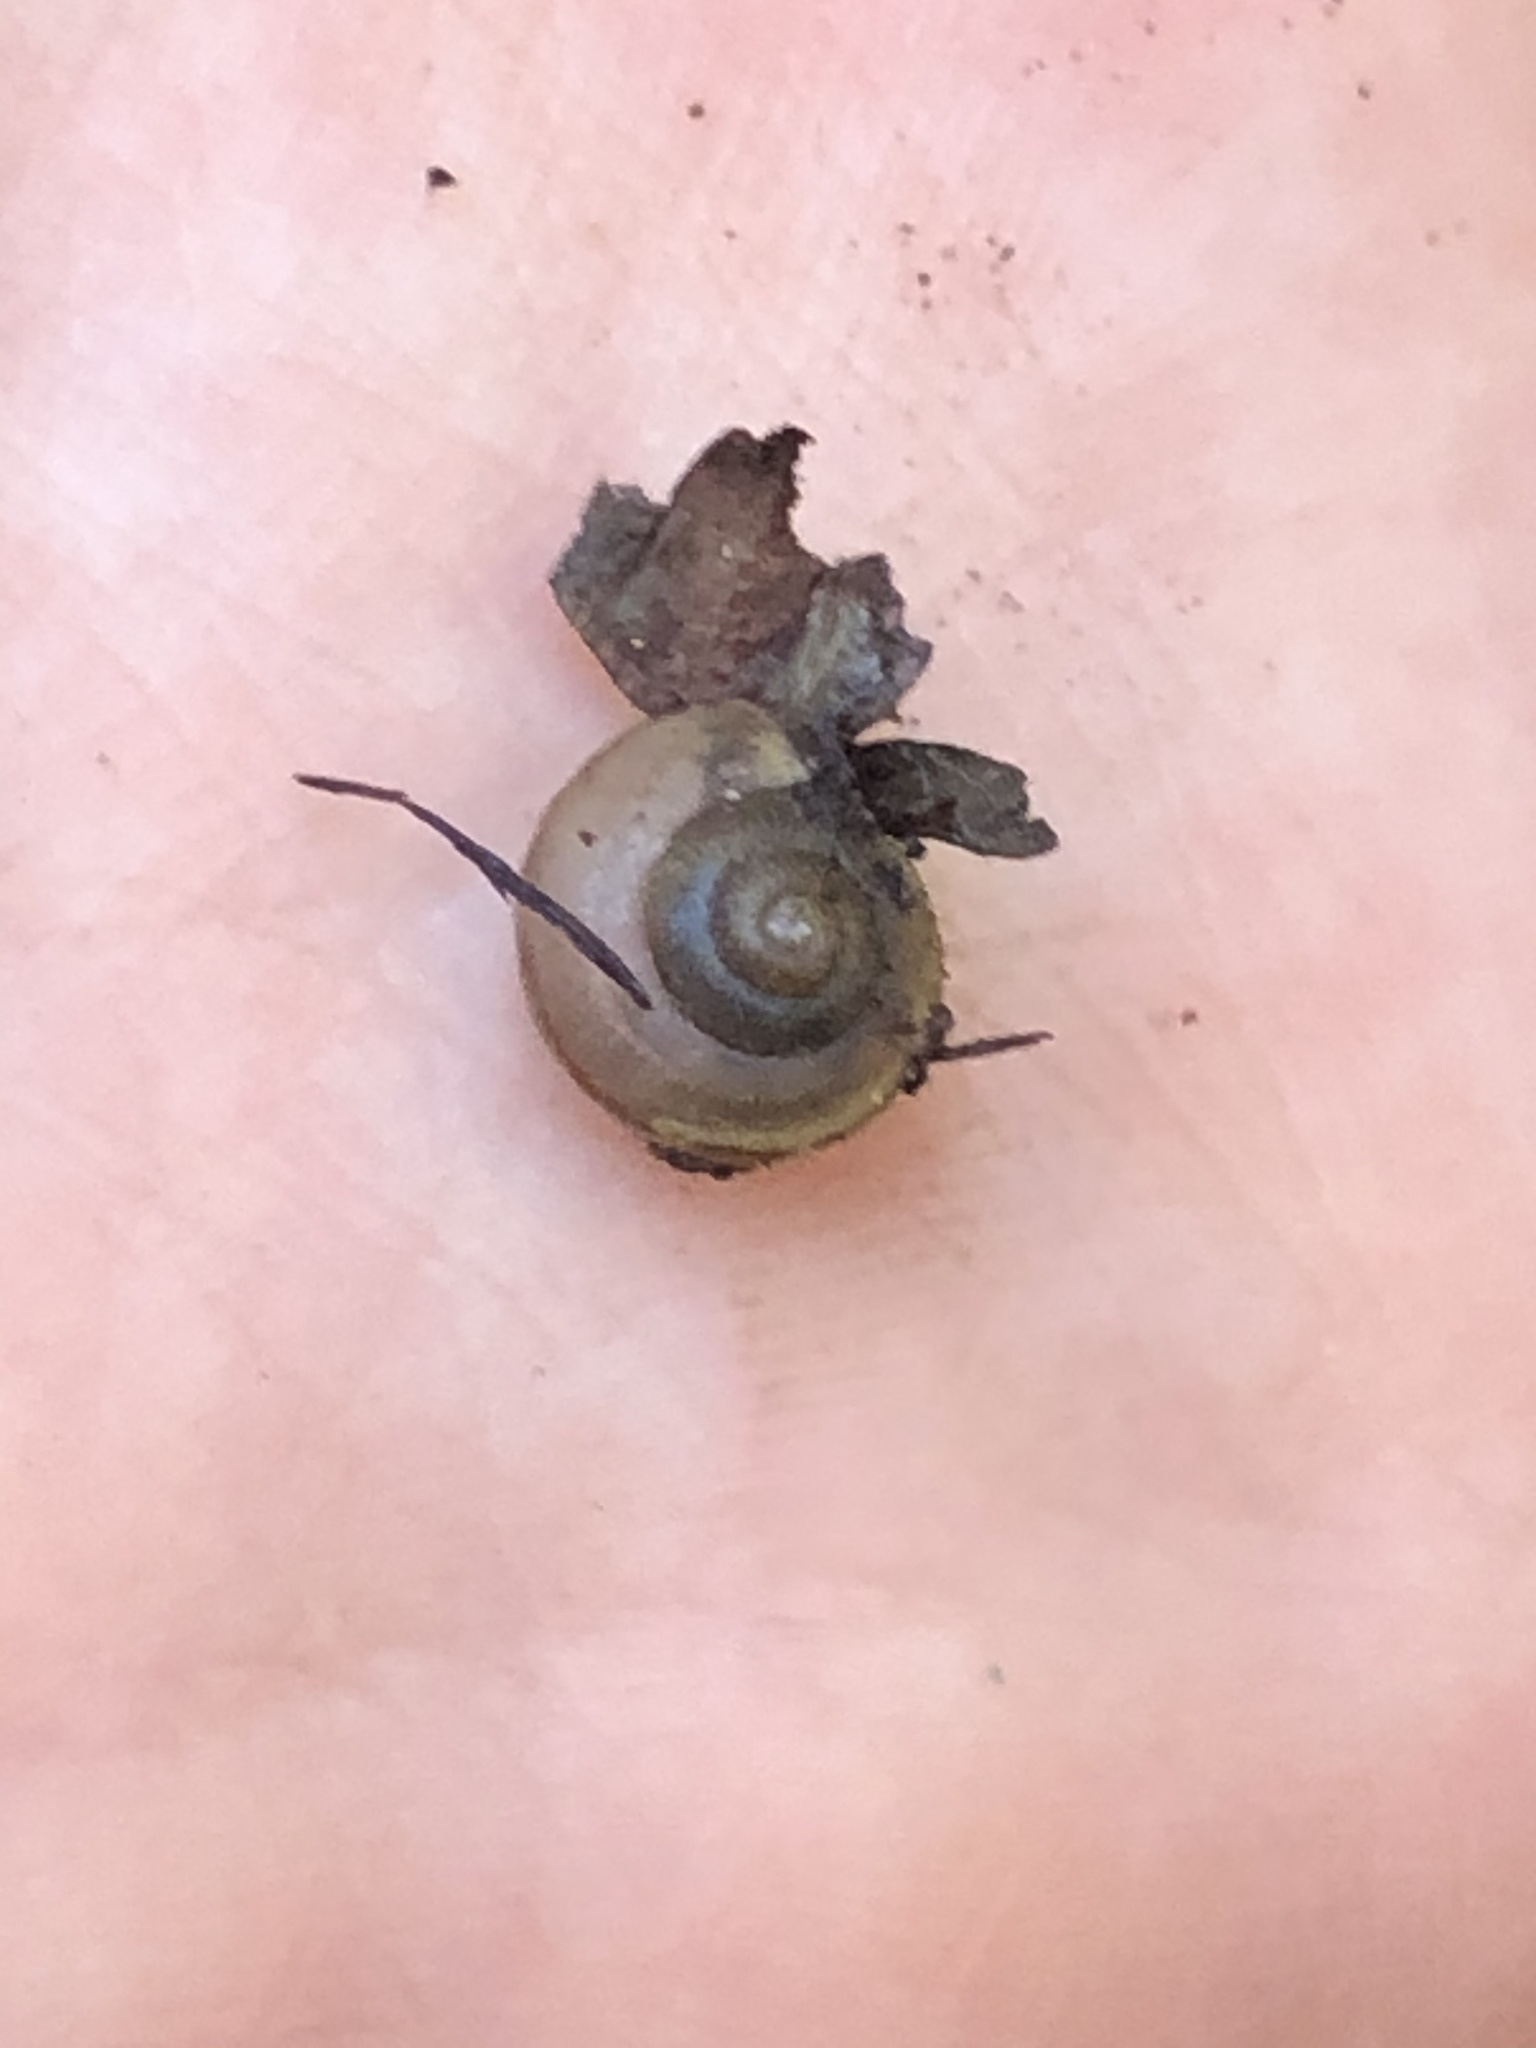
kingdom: Animalia
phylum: Mollusca
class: Gastropoda
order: Stylommatophora
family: Camaenidae
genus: Bradybaena
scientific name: Bradybaena similaris
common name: Asian trampsnail
